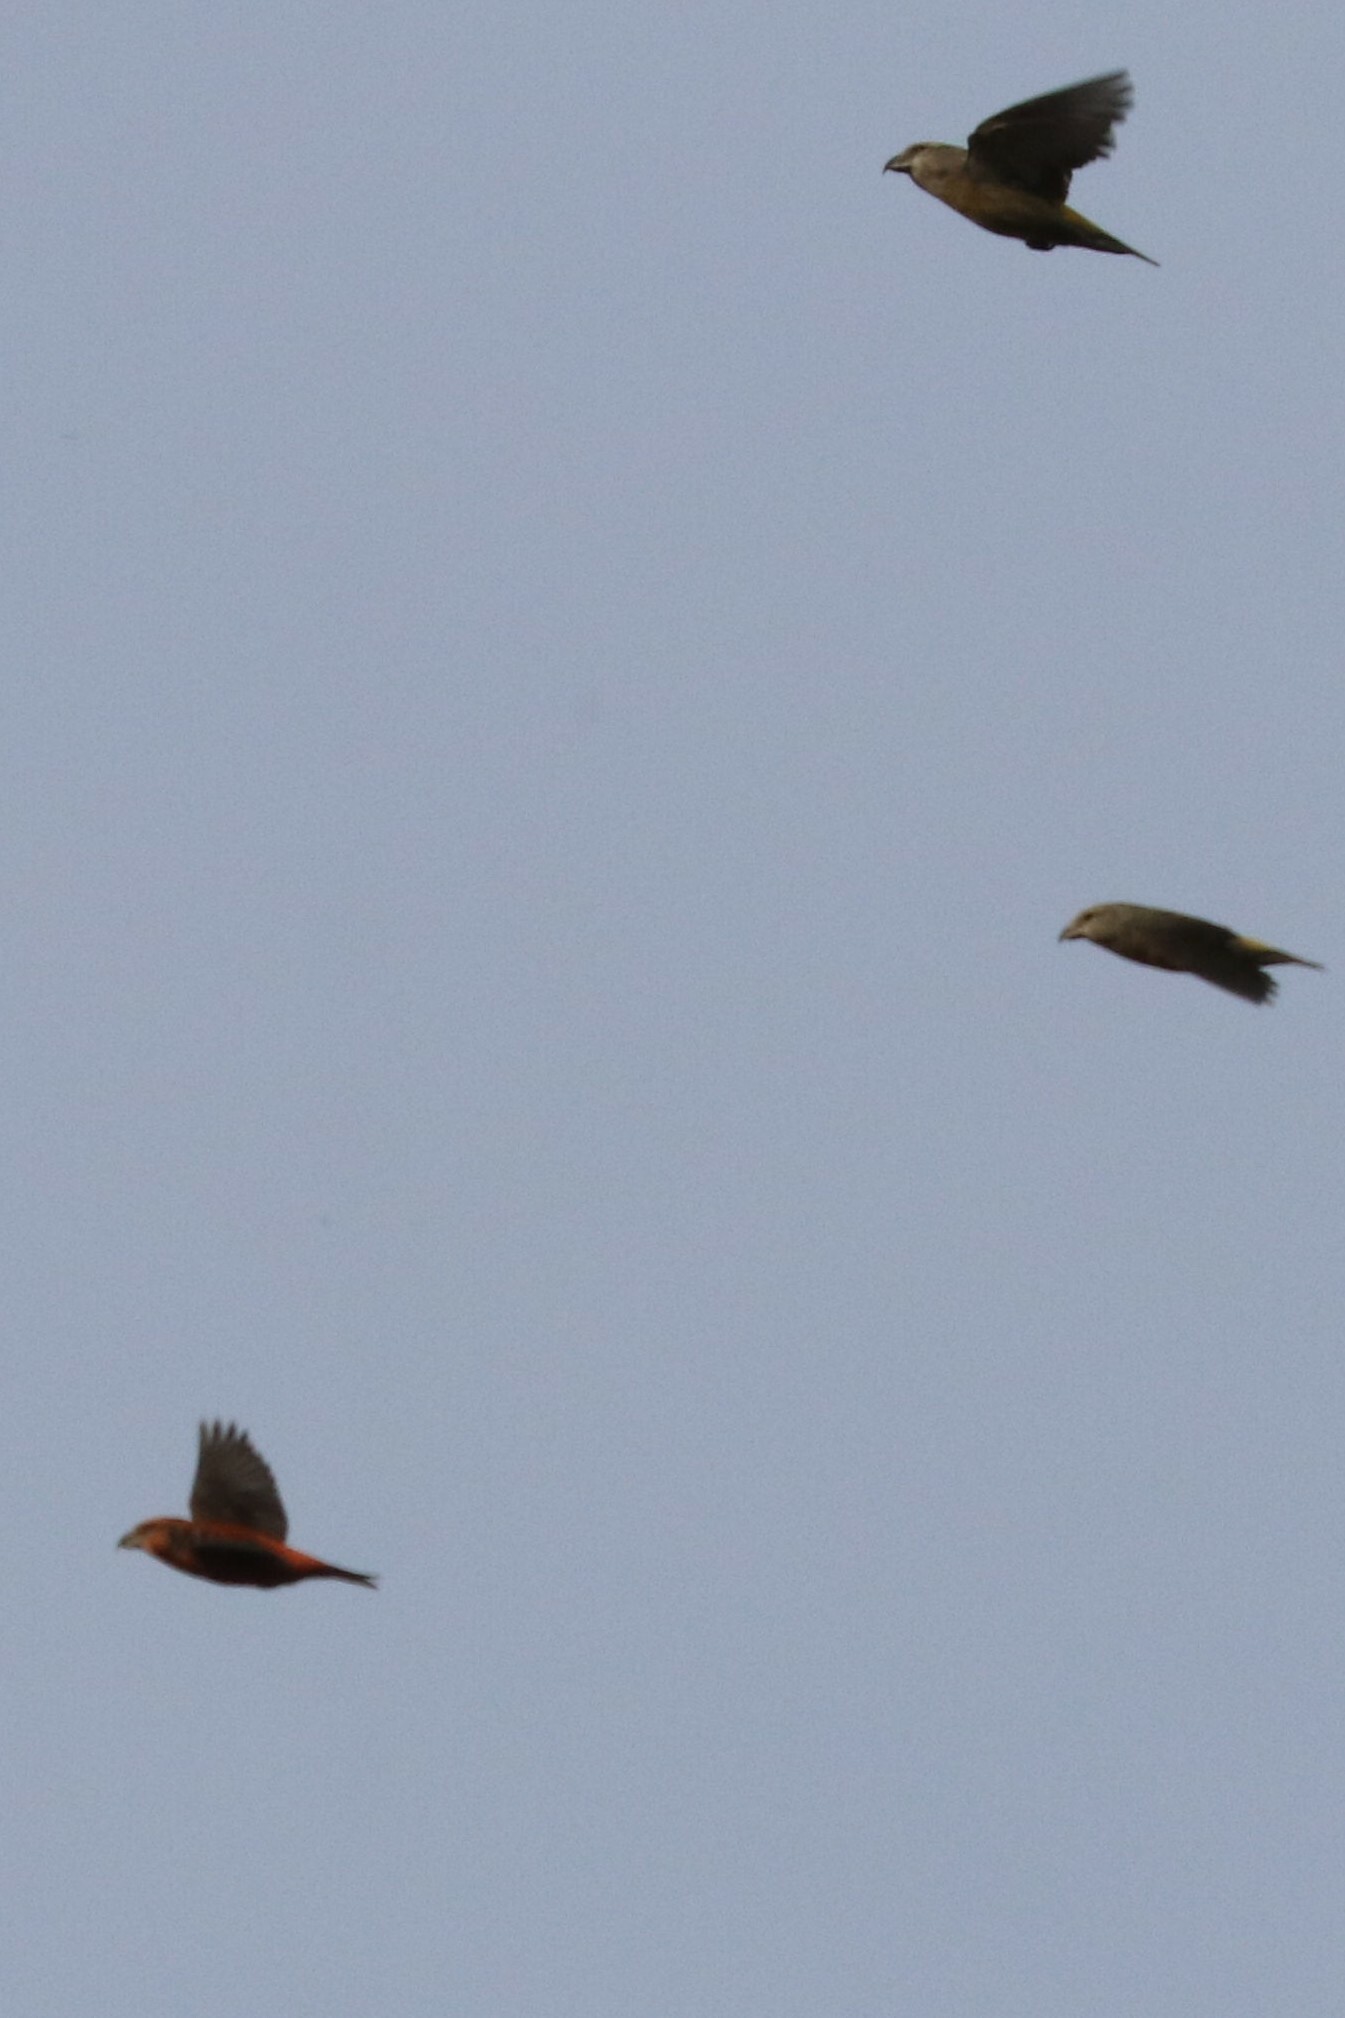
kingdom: Animalia
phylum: Chordata
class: Aves
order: Passeriformes
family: Fringillidae
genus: Loxia
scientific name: Loxia curvirostra
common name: Red crossbill
